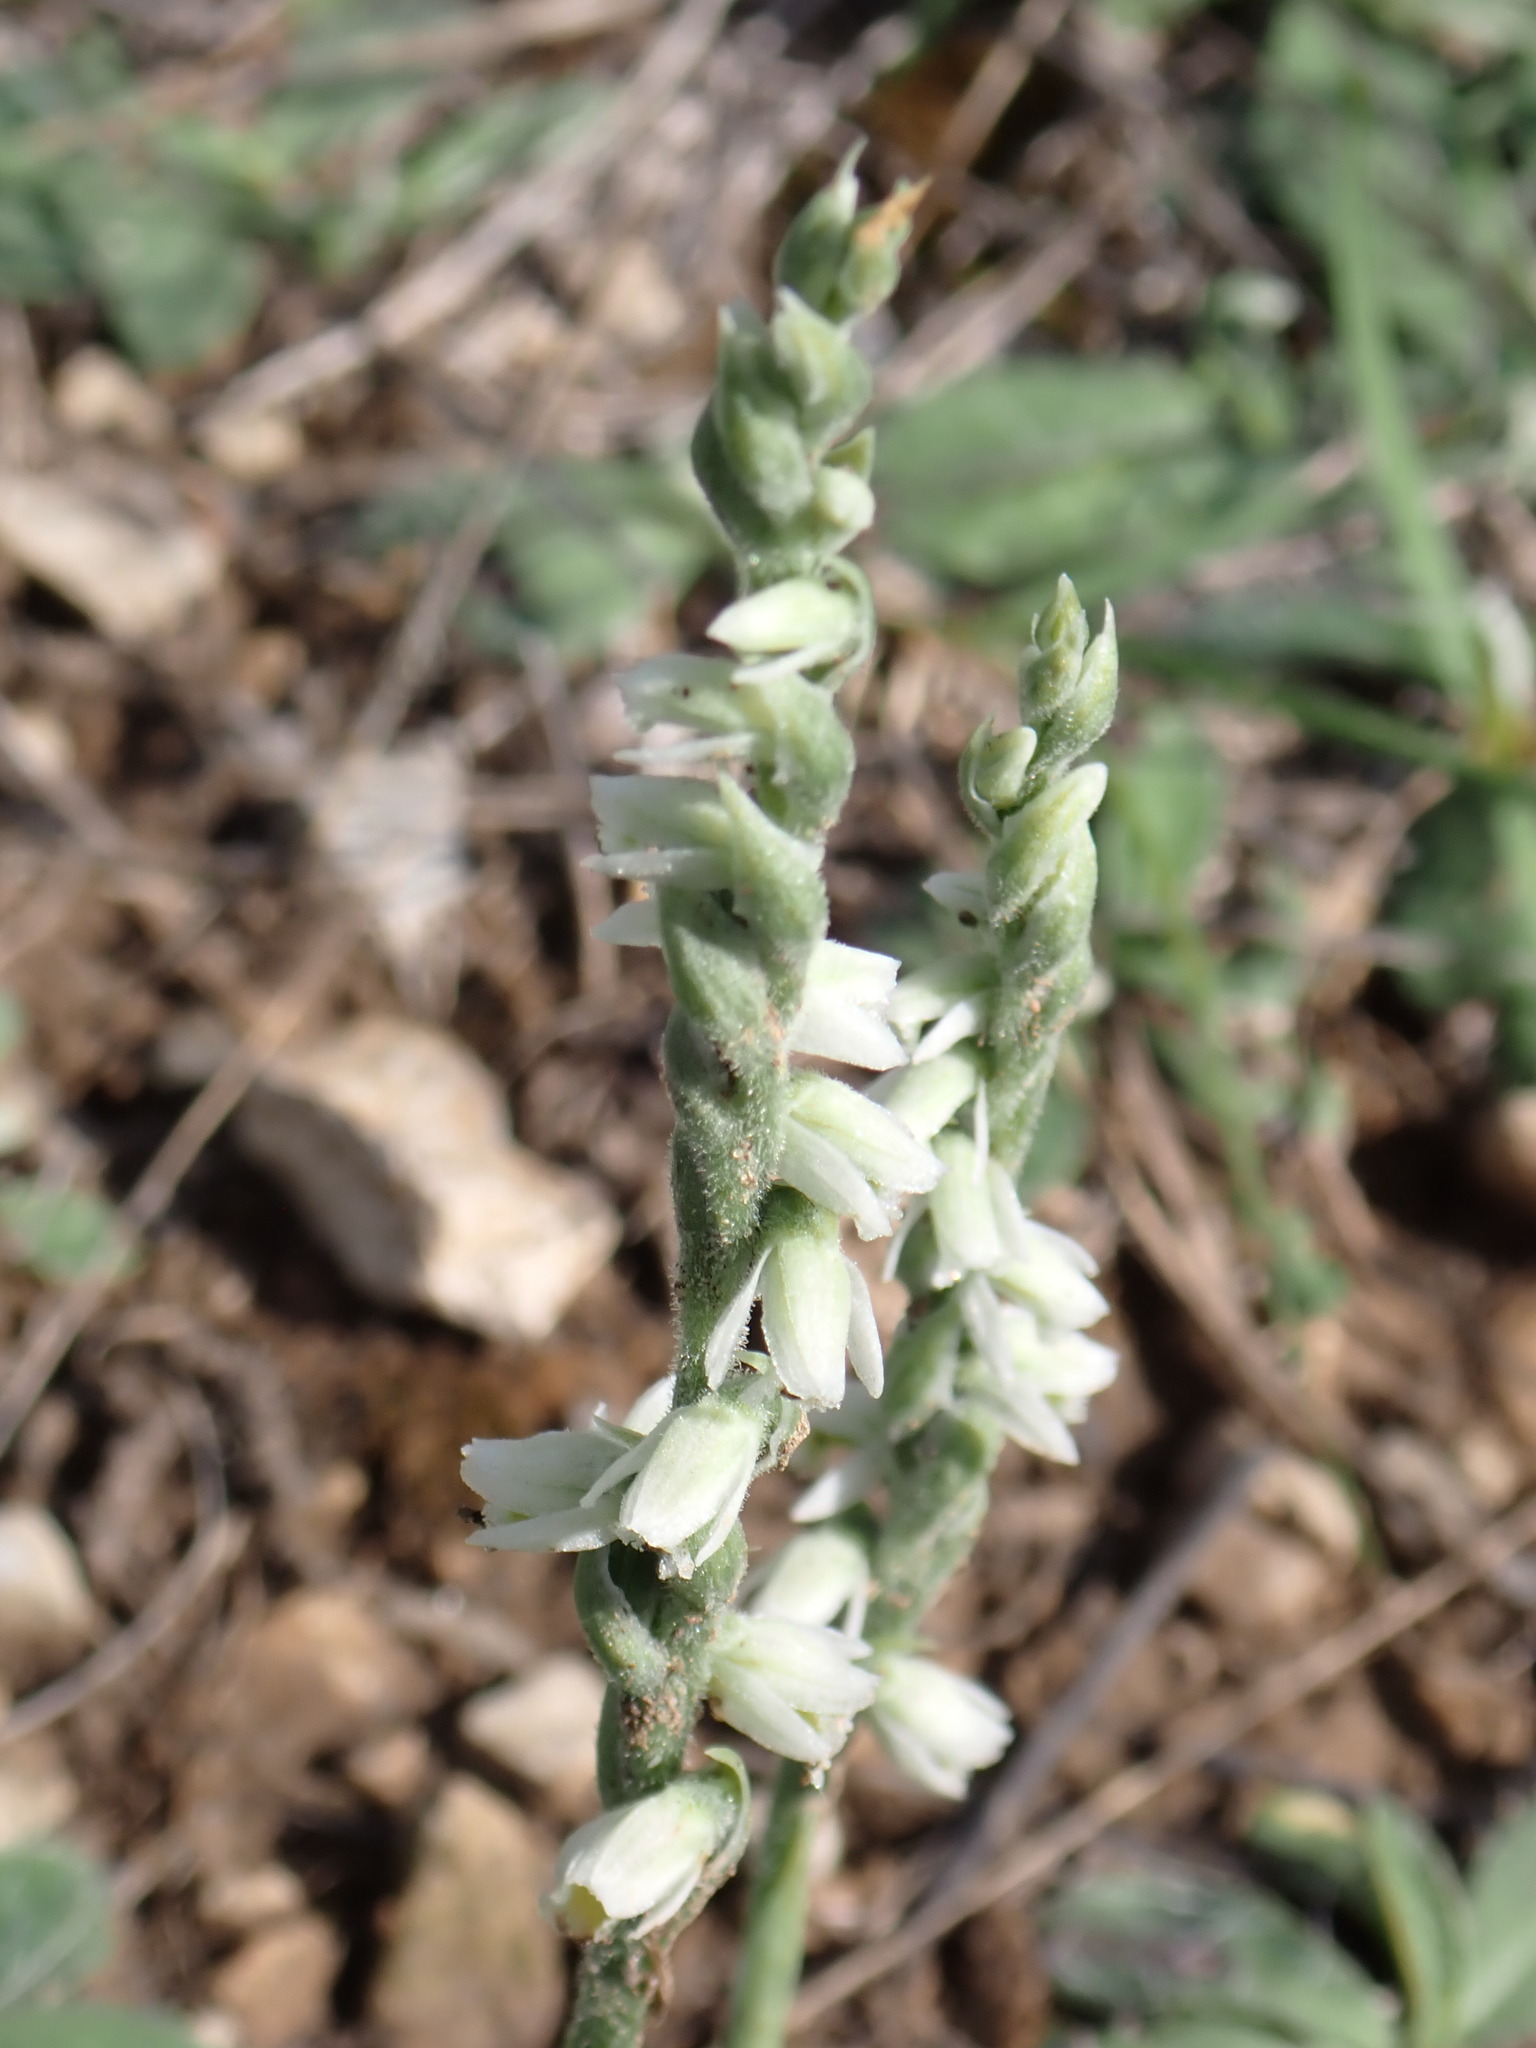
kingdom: Plantae
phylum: Tracheophyta
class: Liliopsida
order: Asparagales
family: Orchidaceae
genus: Spiranthes
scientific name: Spiranthes spiralis
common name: Autumn lady's-tresses
